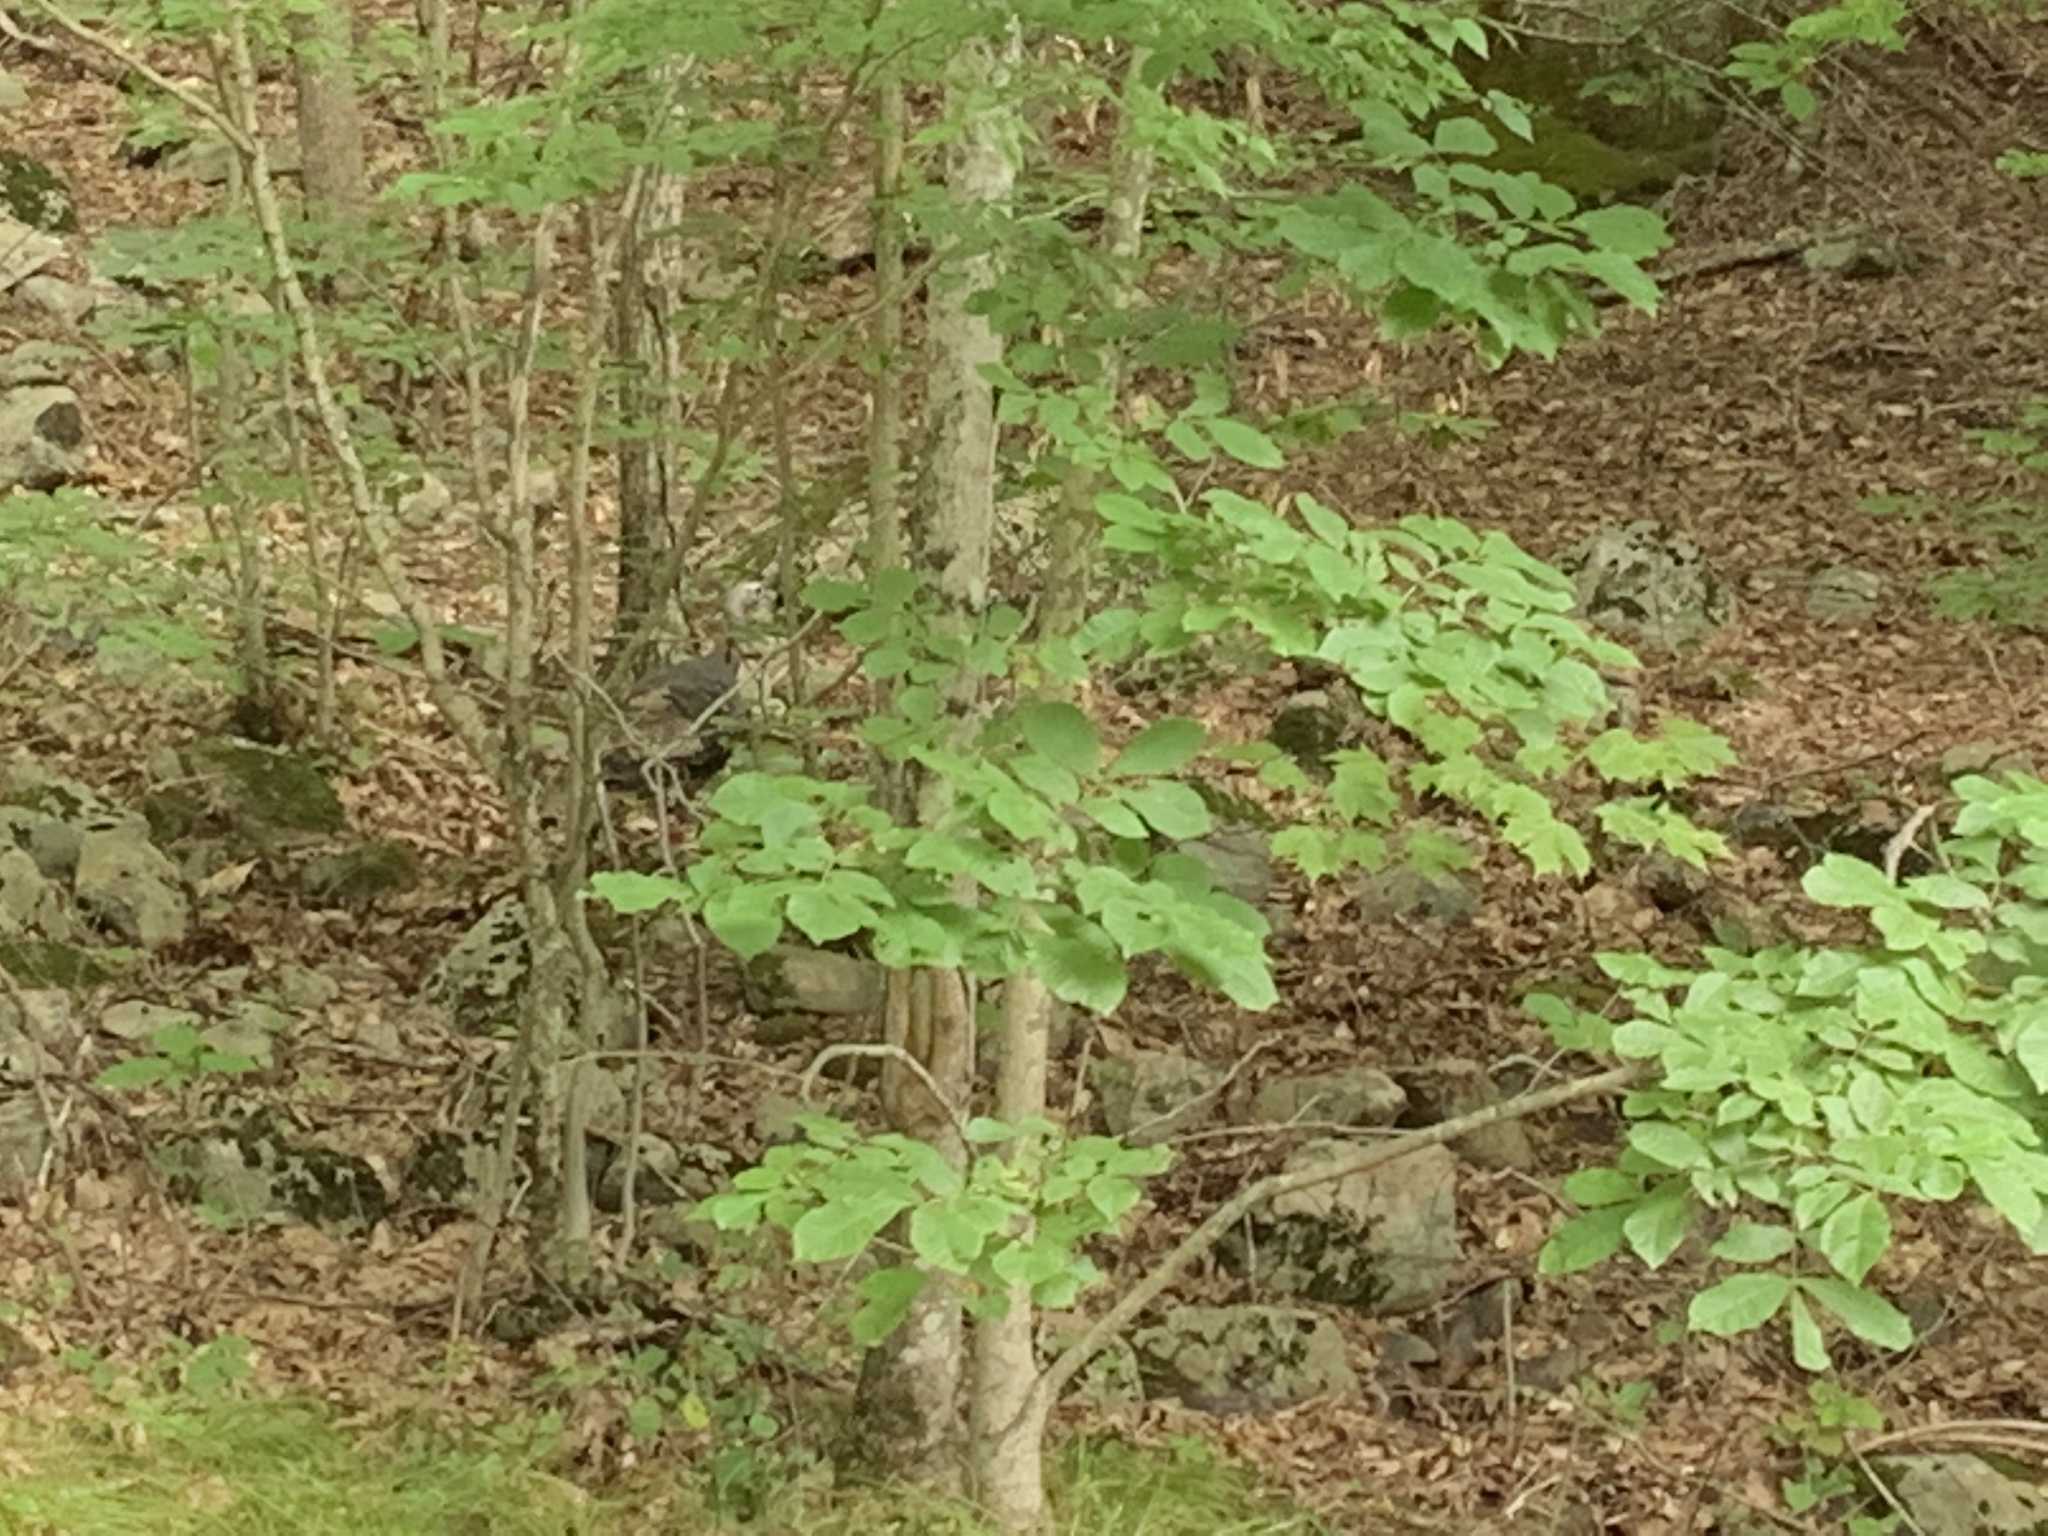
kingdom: Animalia
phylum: Chordata
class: Aves
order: Galliformes
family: Phasianidae
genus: Meleagris
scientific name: Meleagris gallopavo
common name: Wild turkey
